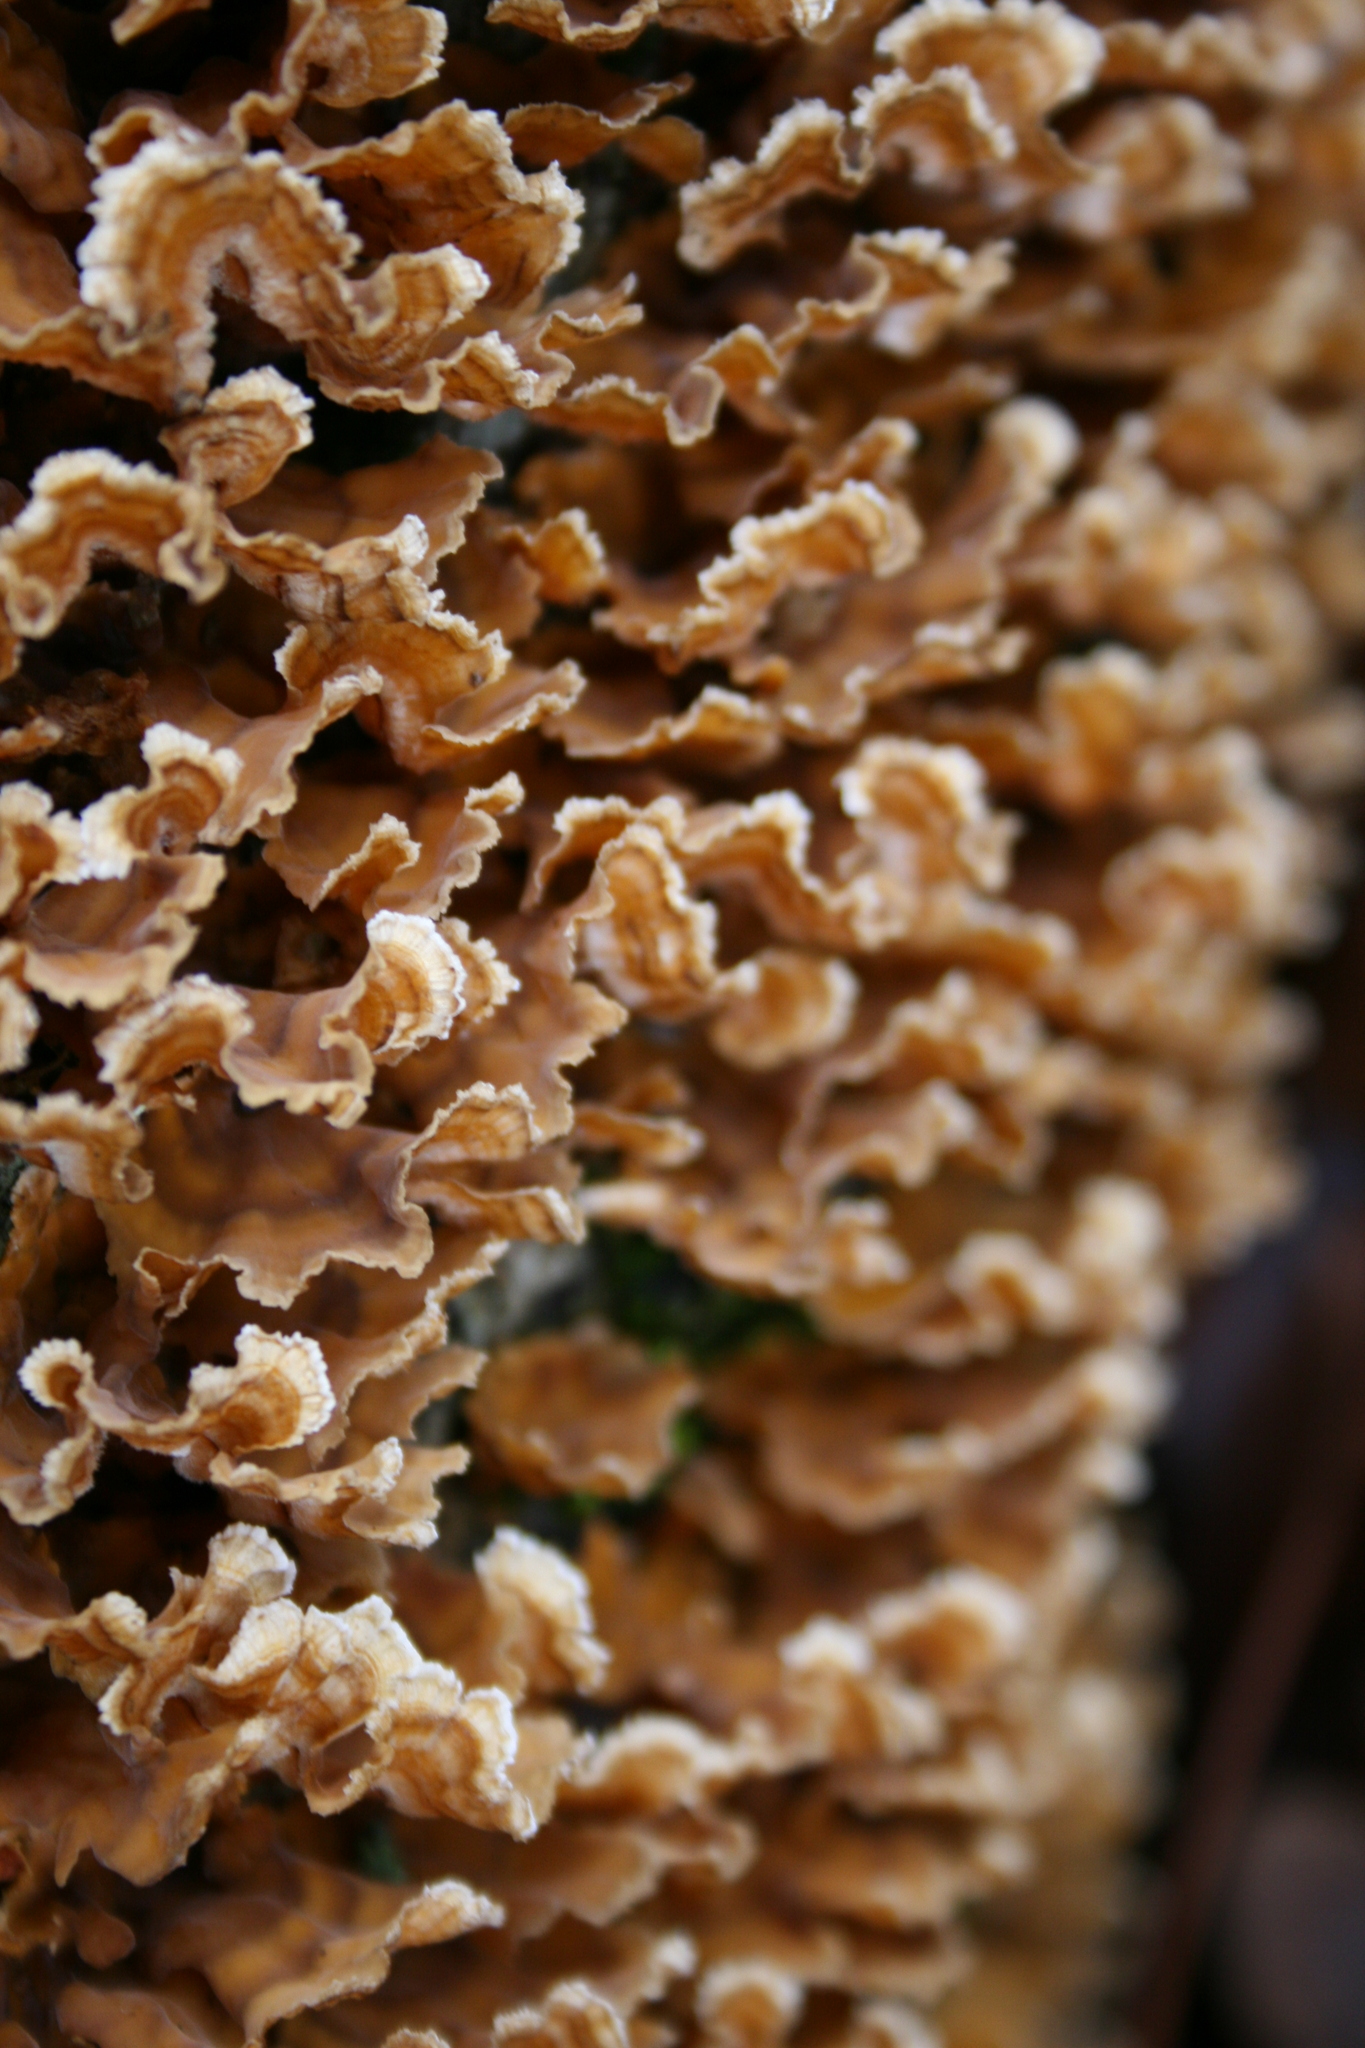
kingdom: Fungi
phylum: Basidiomycota
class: Agaricomycetes
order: Russulales
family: Stereaceae
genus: Stereum
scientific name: Stereum complicatum
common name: Crowded parchment
